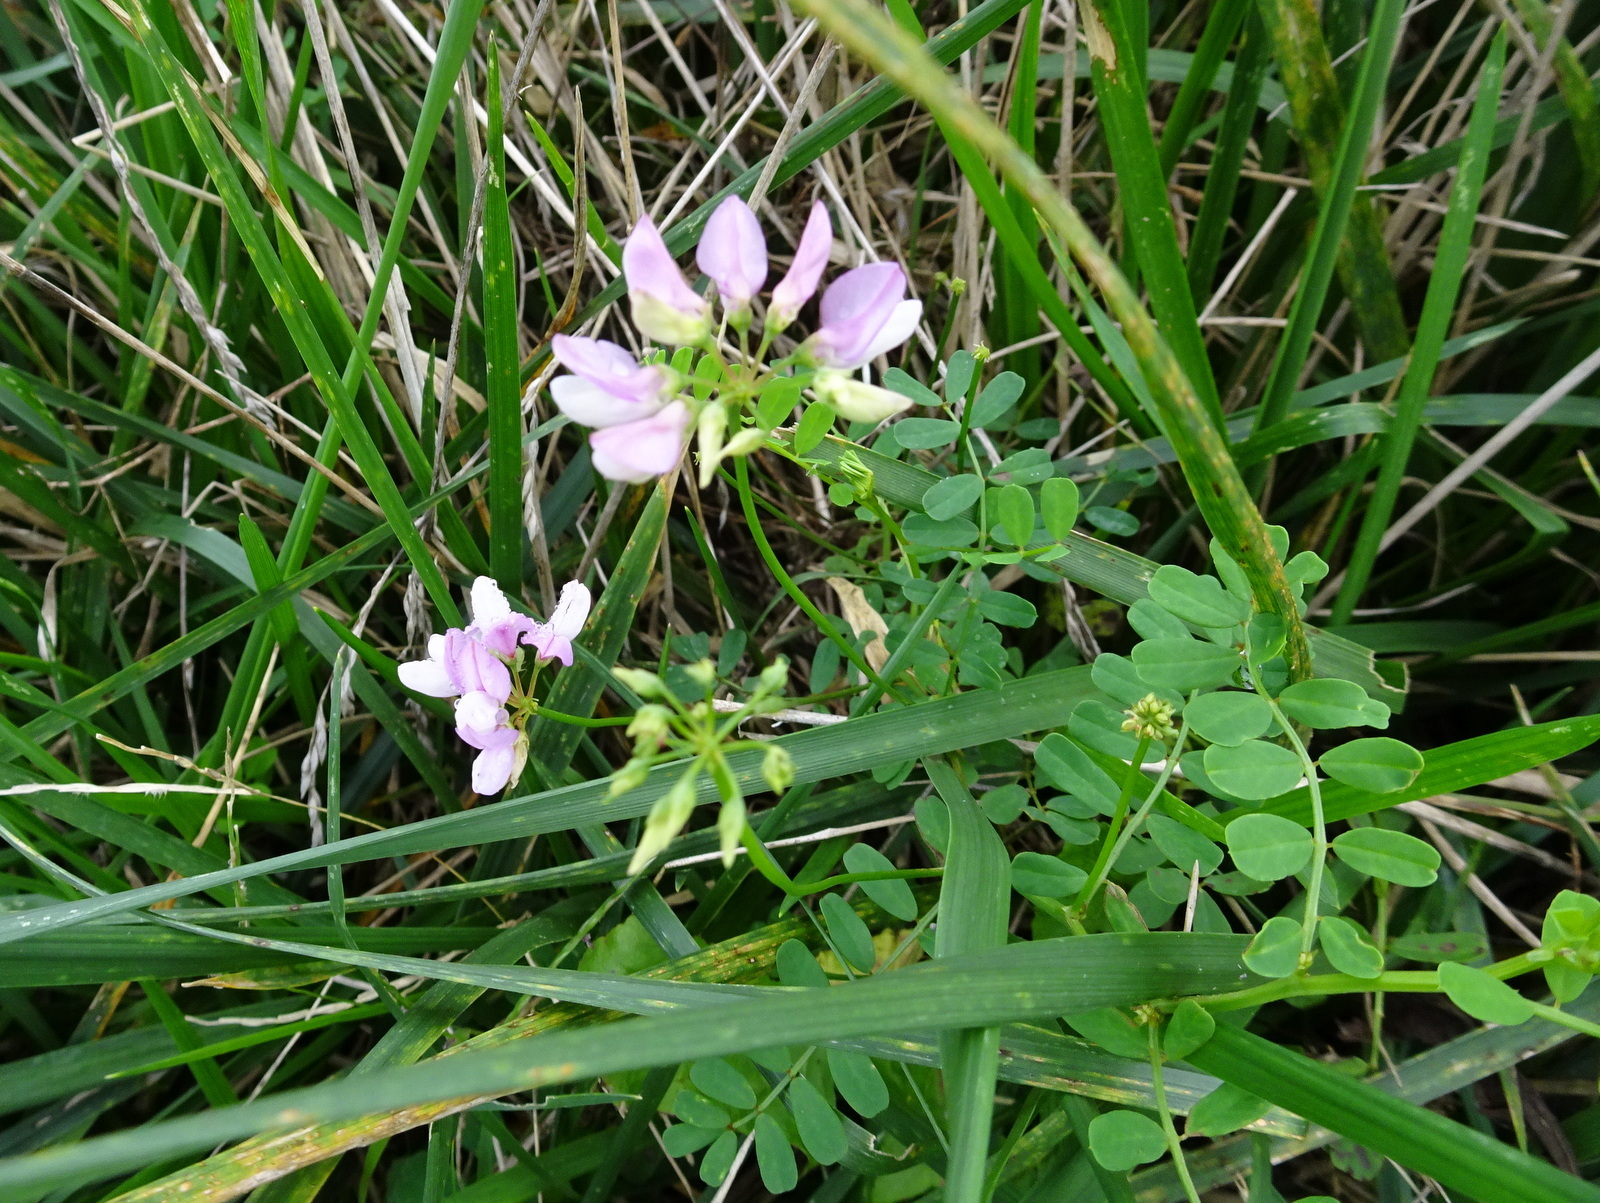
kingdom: Plantae
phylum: Tracheophyta
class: Magnoliopsida
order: Fabales
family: Fabaceae
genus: Coronilla
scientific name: Coronilla varia
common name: Crownvetch
